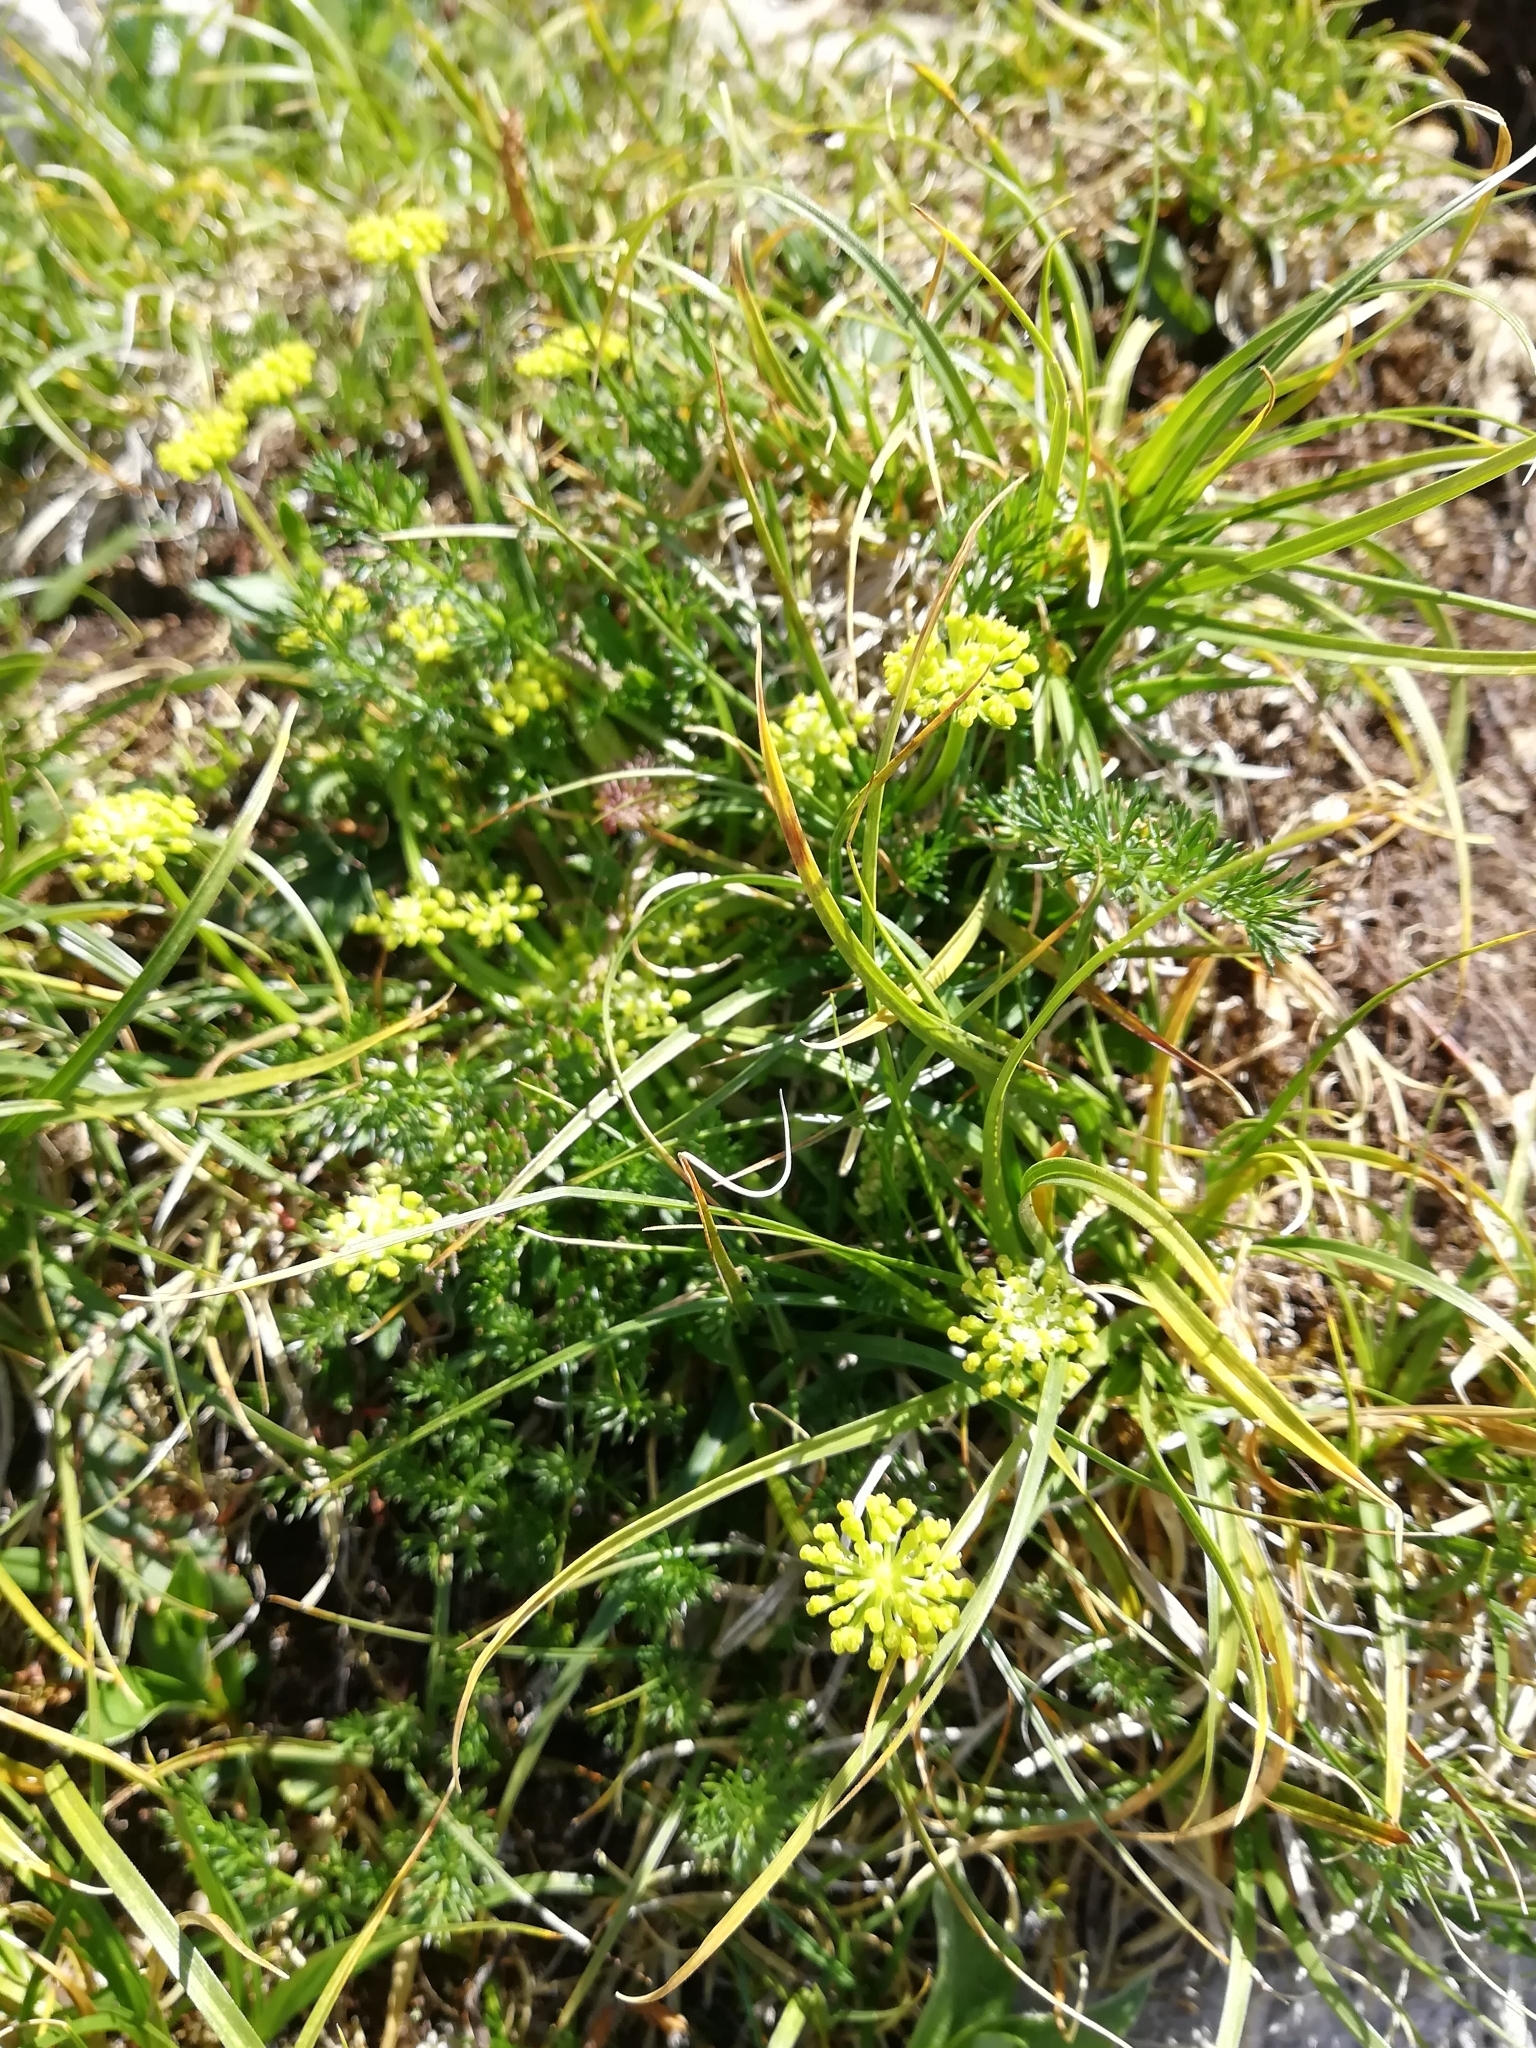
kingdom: Plantae
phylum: Tracheophyta
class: Magnoliopsida
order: Apiales
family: Apiaceae
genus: Chamaesciadium
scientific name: Chamaesciadium acaule
